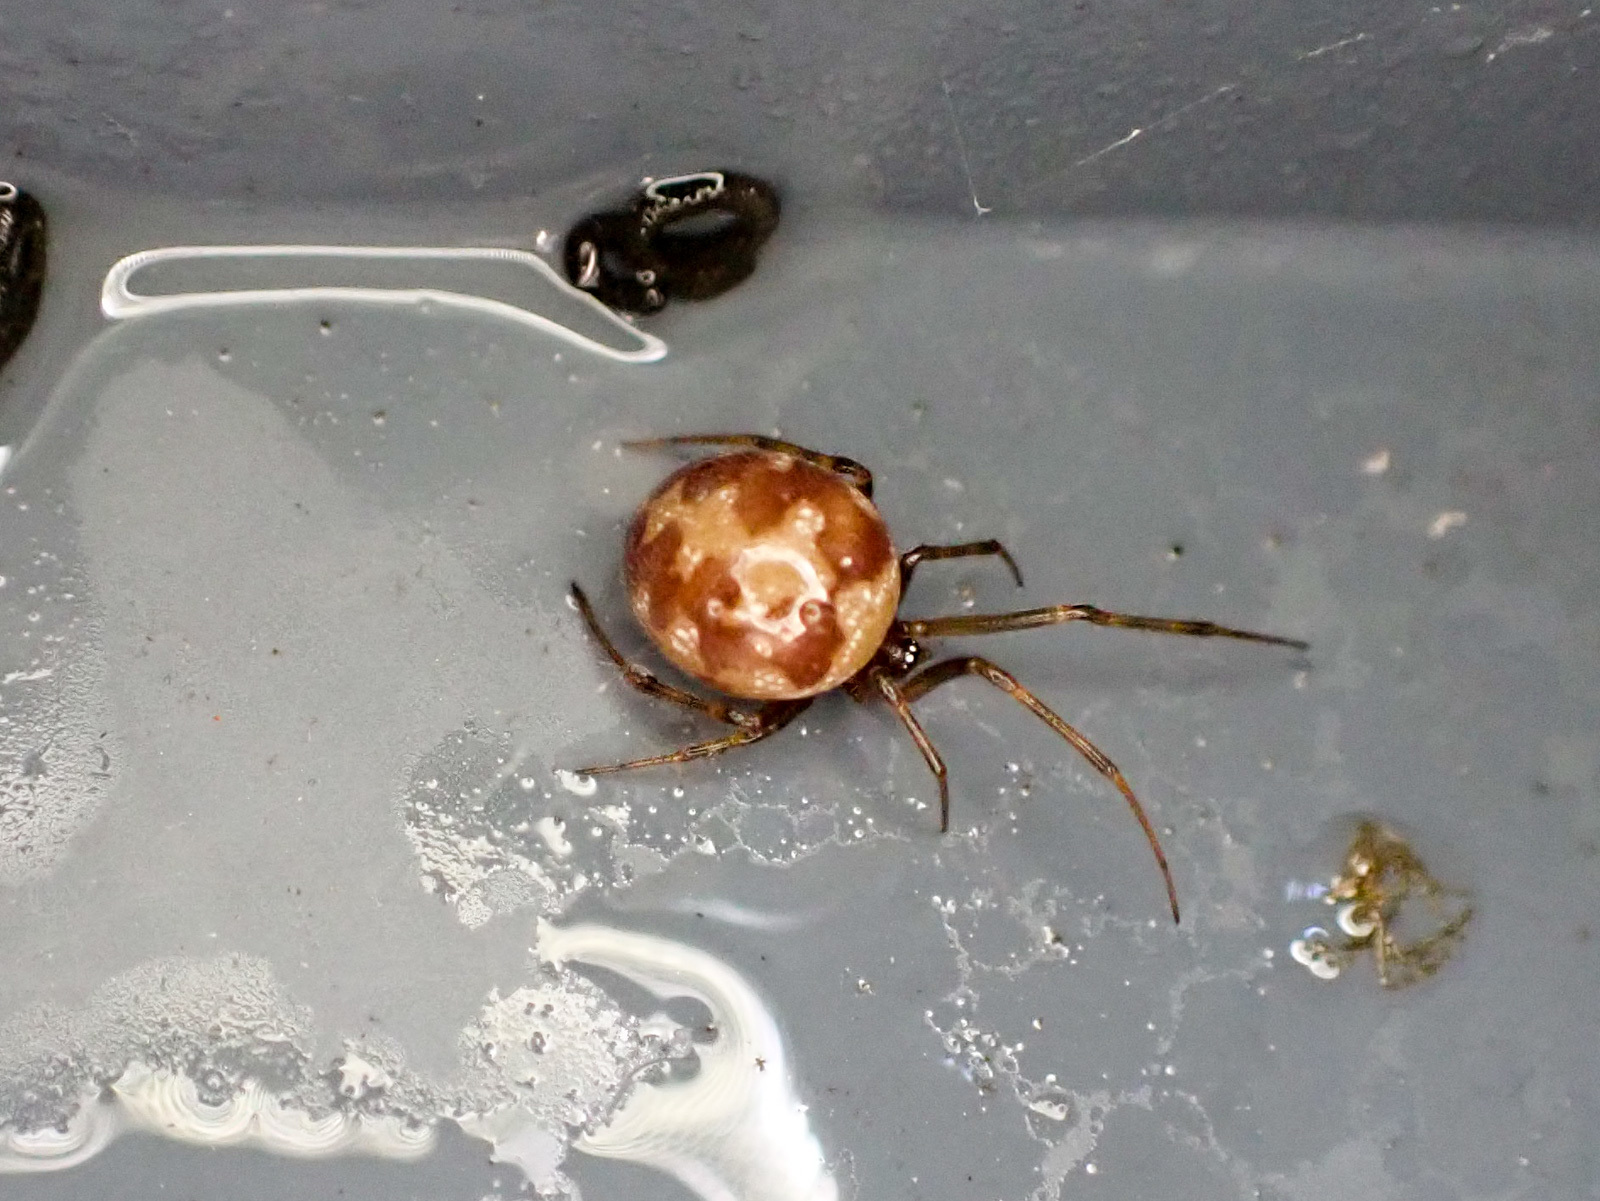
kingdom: Animalia
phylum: Arthropoda
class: Arachnida
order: Araneae
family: Theridiidae
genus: Steatoda
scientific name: Steatoda triangulosa
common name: Triangulate bud spider
